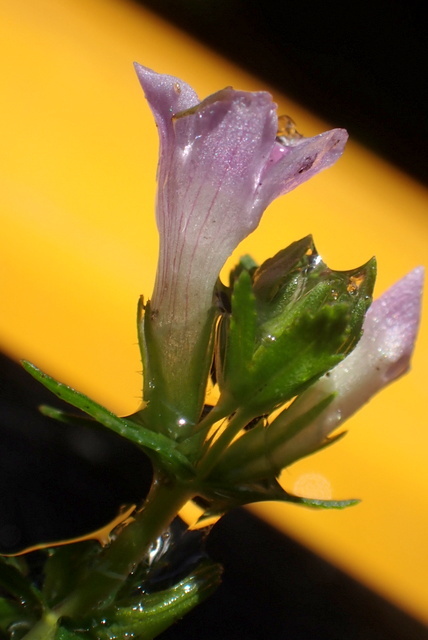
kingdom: Plantae
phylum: Tracheophyta
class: Magnoliopsida
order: Lamiales
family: Plantaginaceae
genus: Limnophila
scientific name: Limnophila sessiliflora
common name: Asian marshweed
